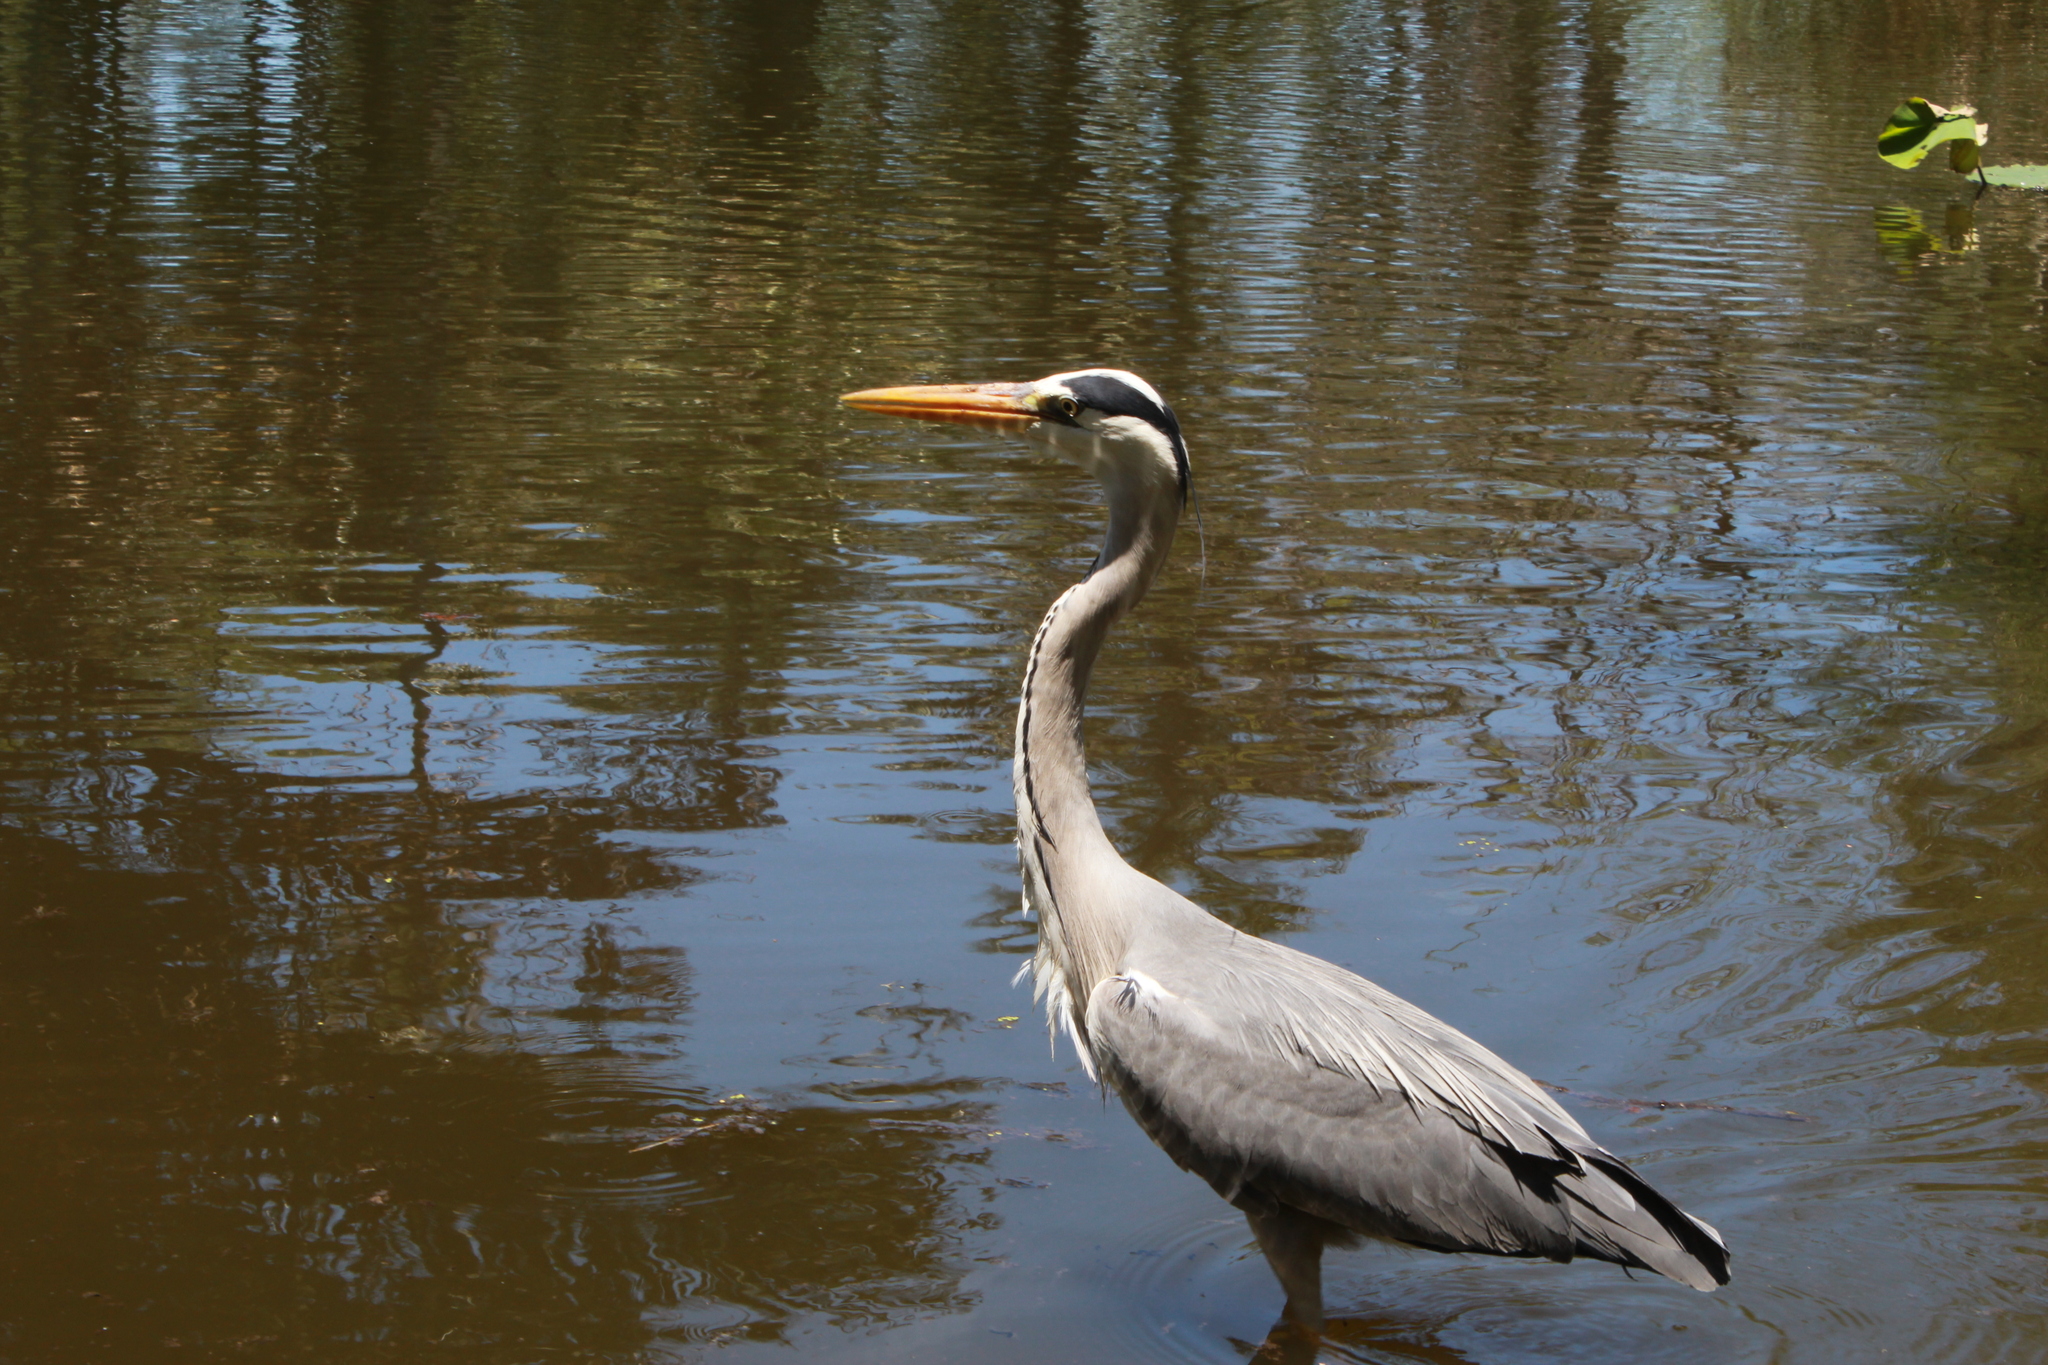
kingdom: Animalia
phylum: Chordata
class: Aves
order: Pelecaniformes
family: Ardeidae
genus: Ardea
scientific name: Ardea cinerea
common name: Grey heron
